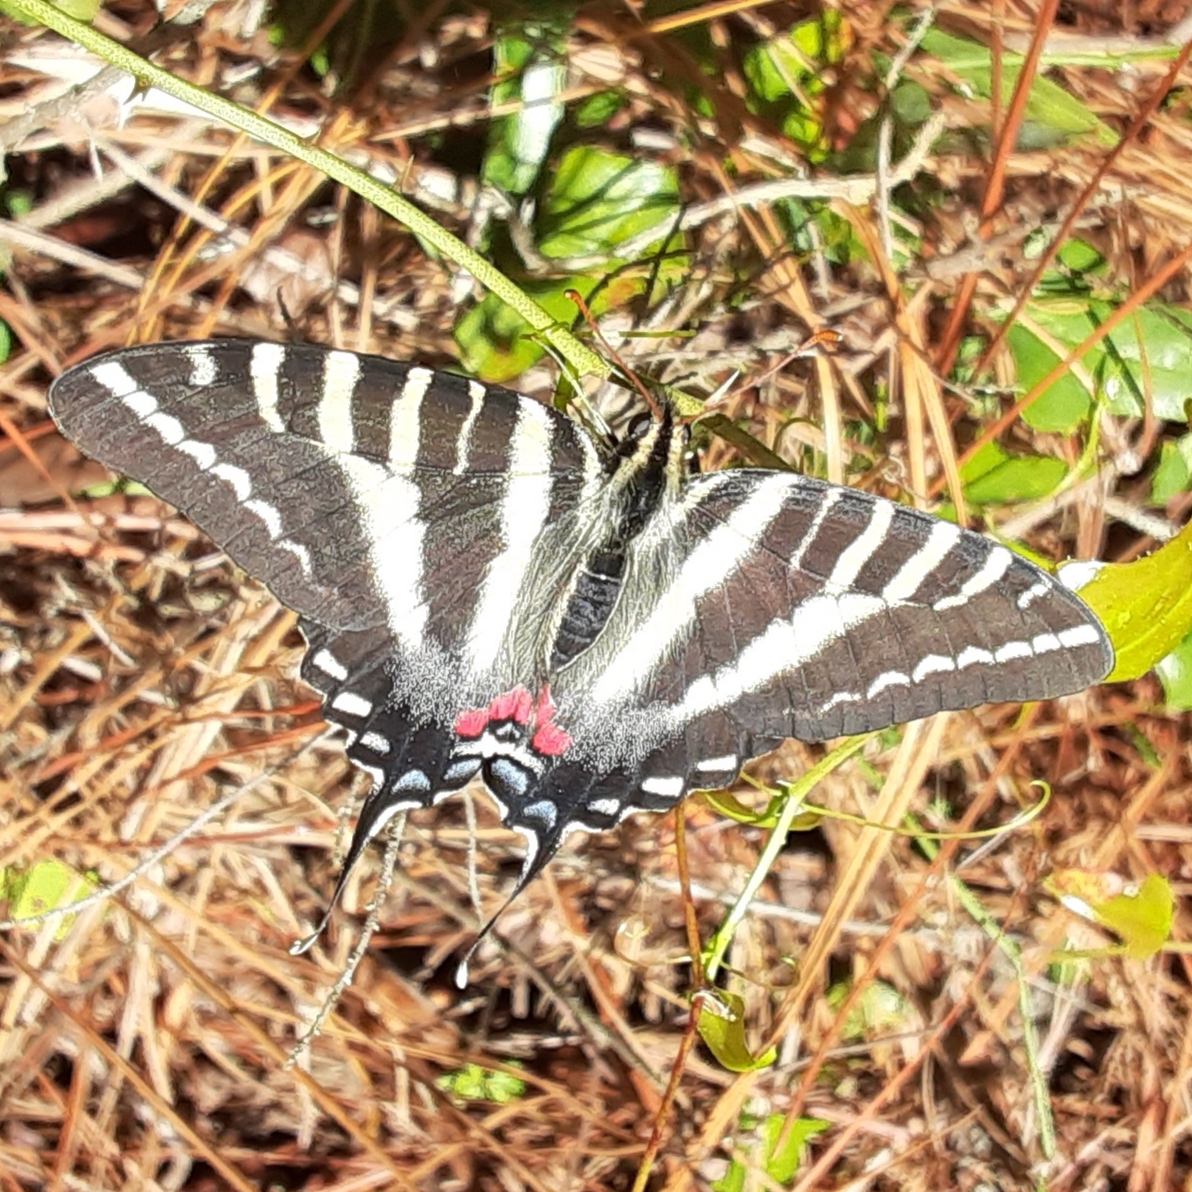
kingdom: Animalia
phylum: Arthropoda
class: Insecta
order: Lepidoptera
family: Papilionidae
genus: Protographium
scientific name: Protographium marcellus
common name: Zebra swallowtail
